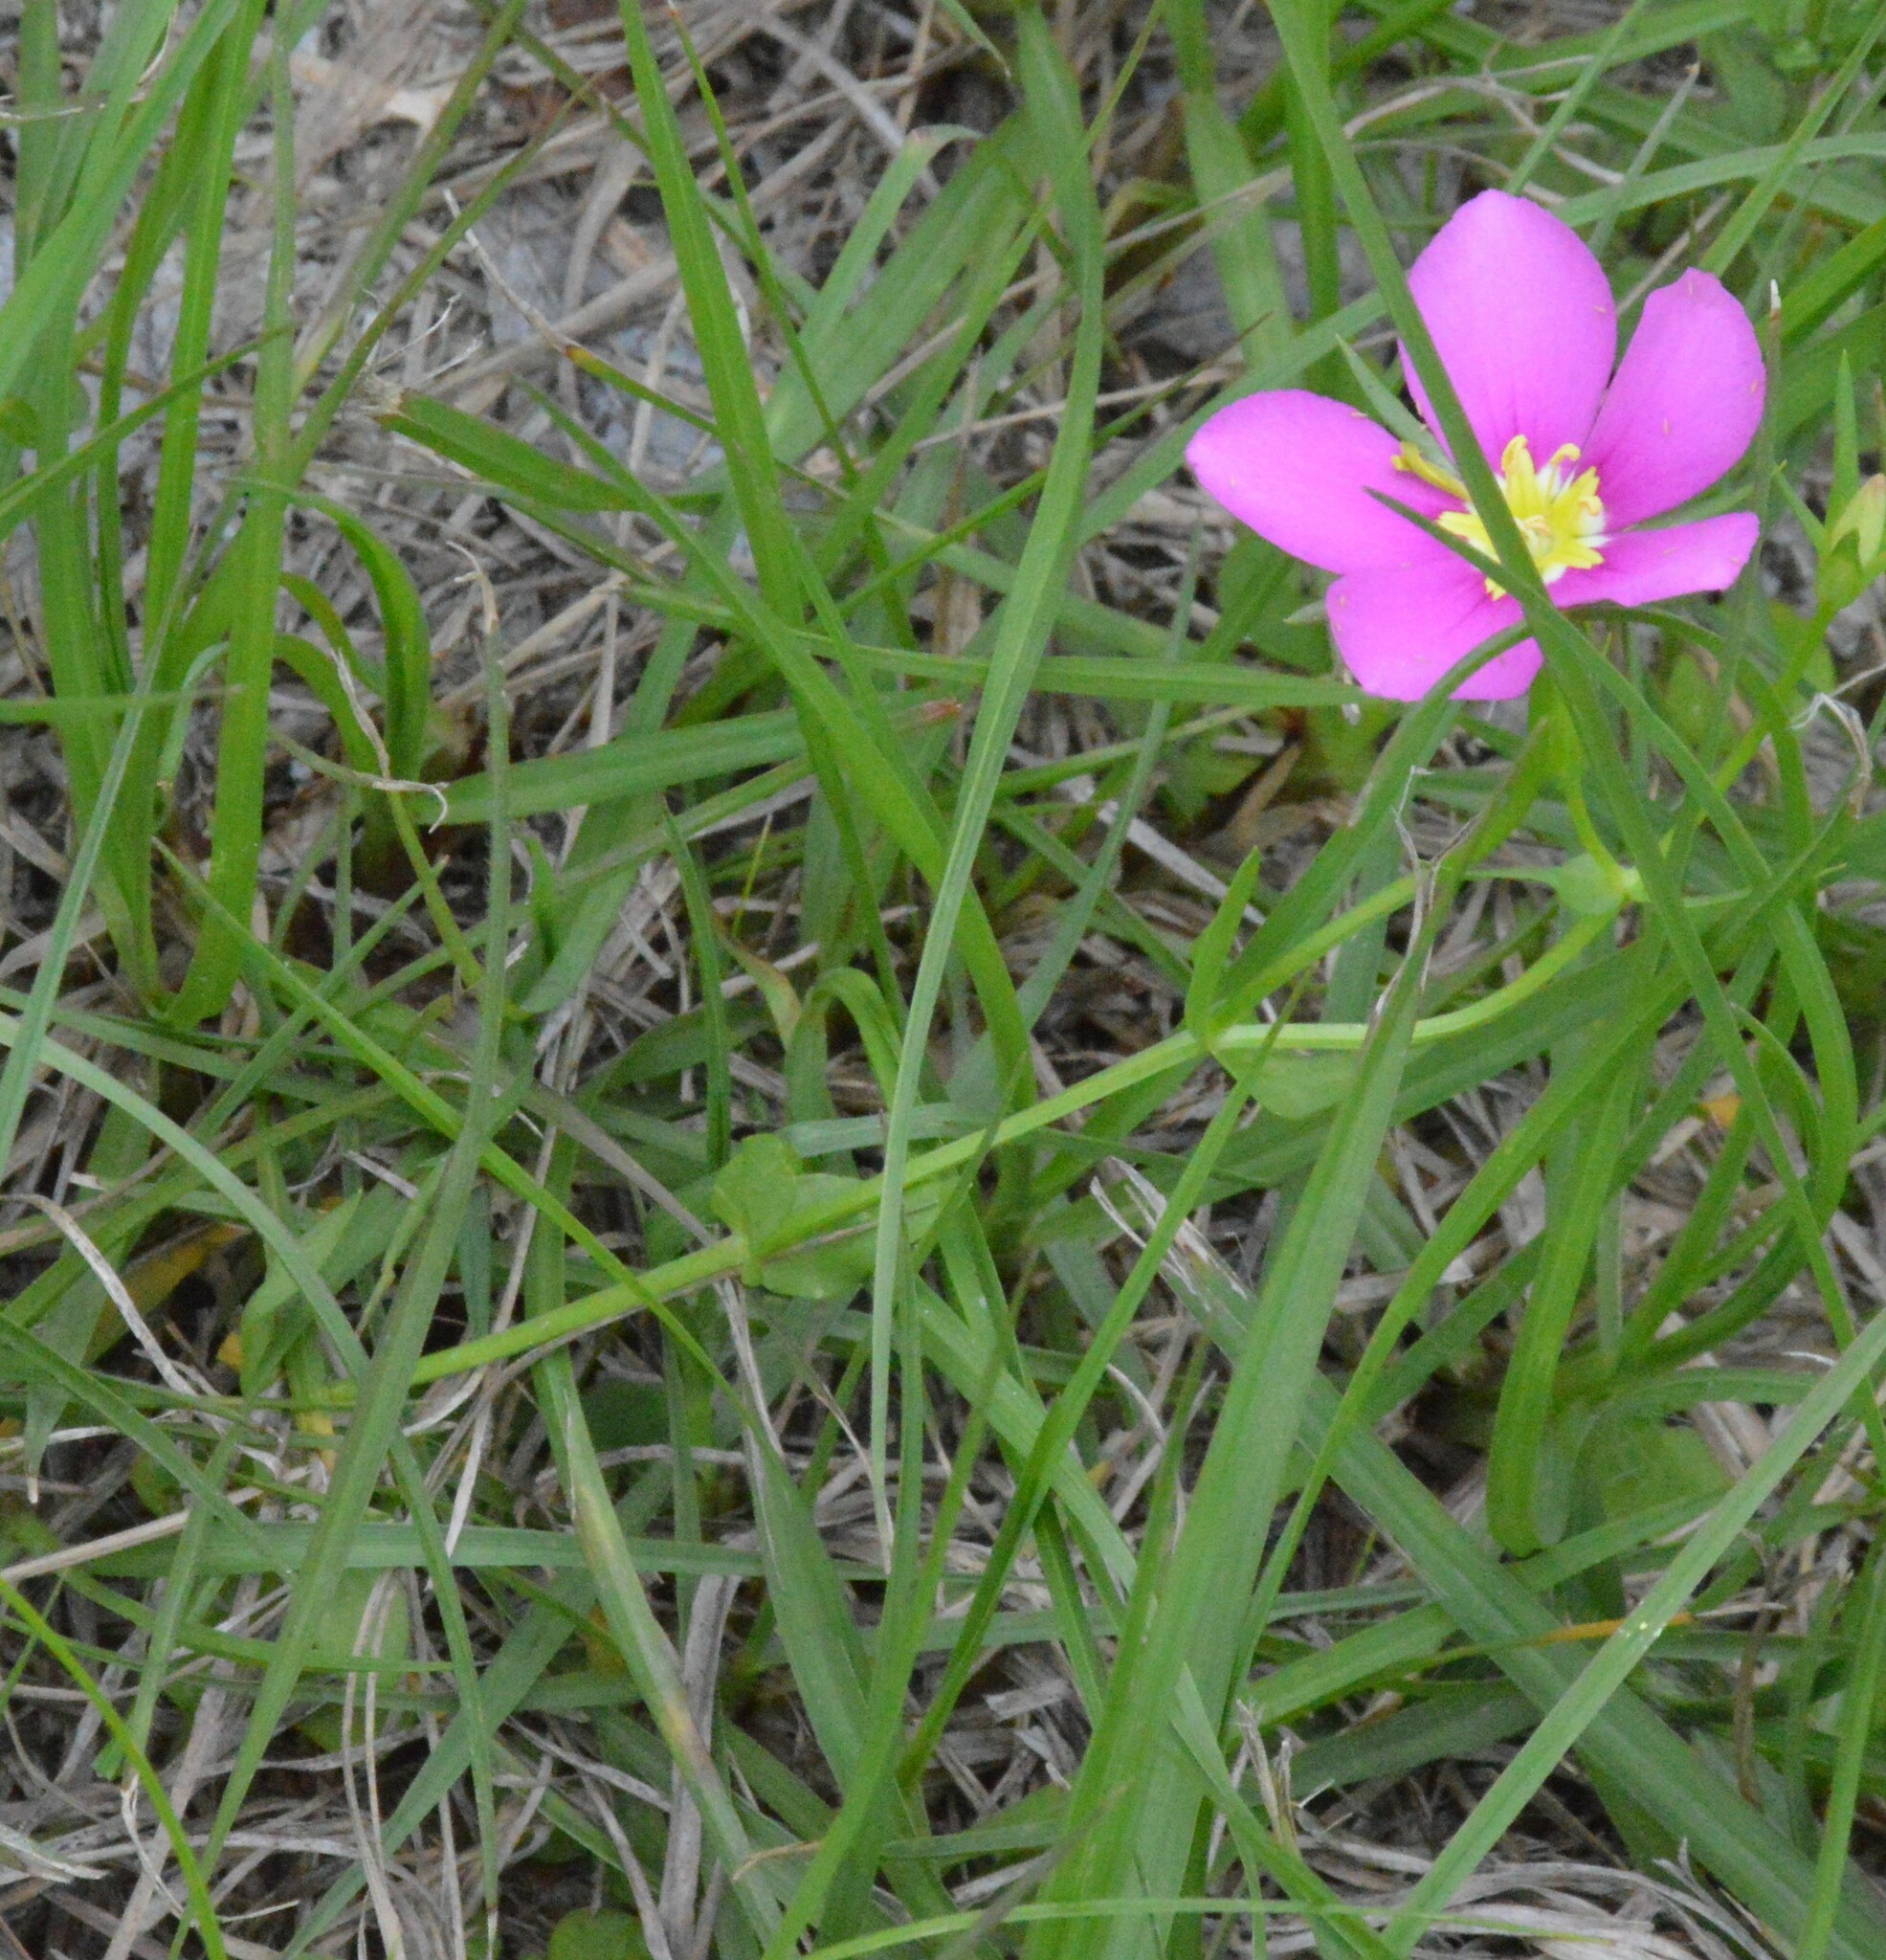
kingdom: Plantae
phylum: Tracheophyta
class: Magnoliopsida
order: Gentianales
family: Gentianaceae
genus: Sabatia
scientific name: Sabatia campestris
